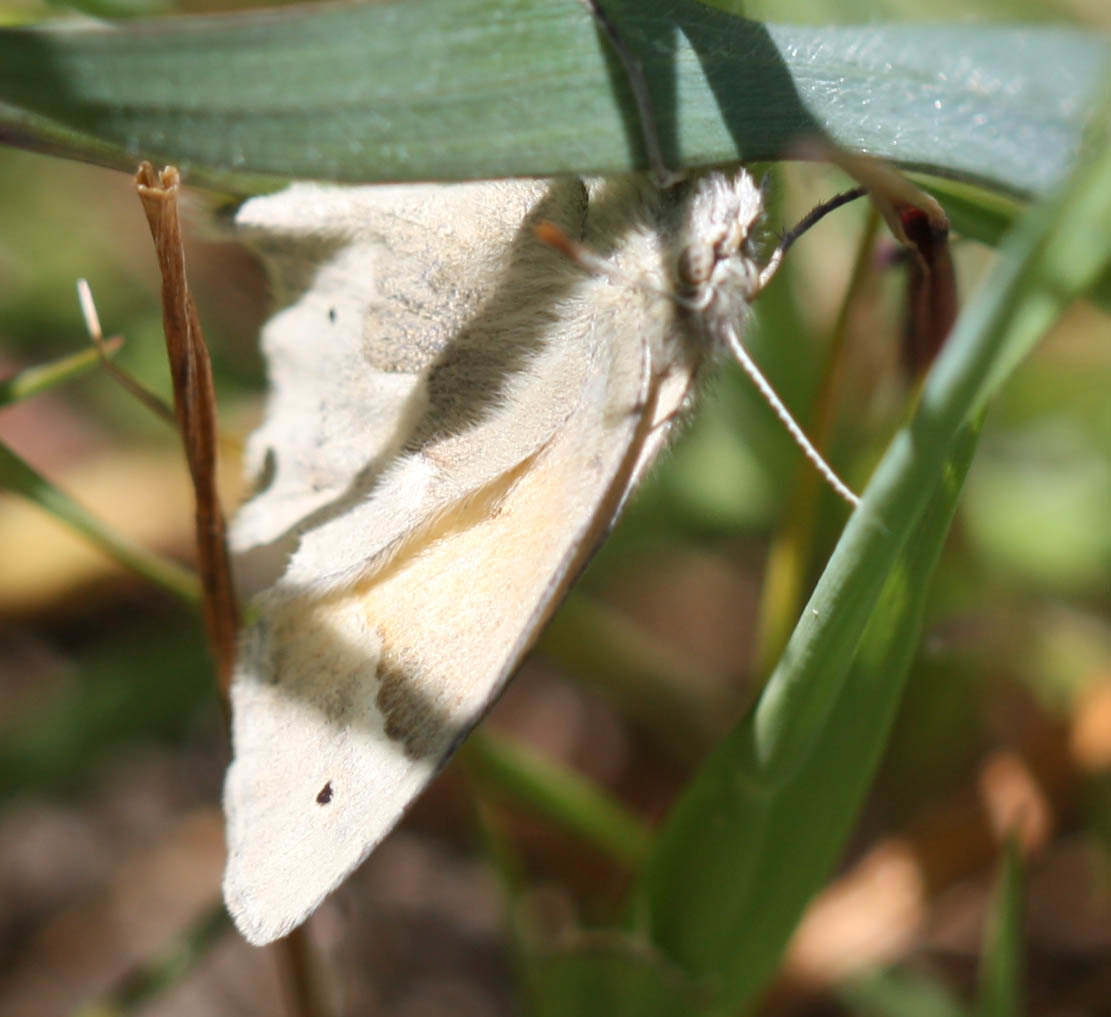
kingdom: Animalia
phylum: Arthropoda
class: Insecta
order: Lepidoptera
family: Nymphalidae
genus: Coenonympha
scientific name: Coenonympha california
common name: Common ringlet
